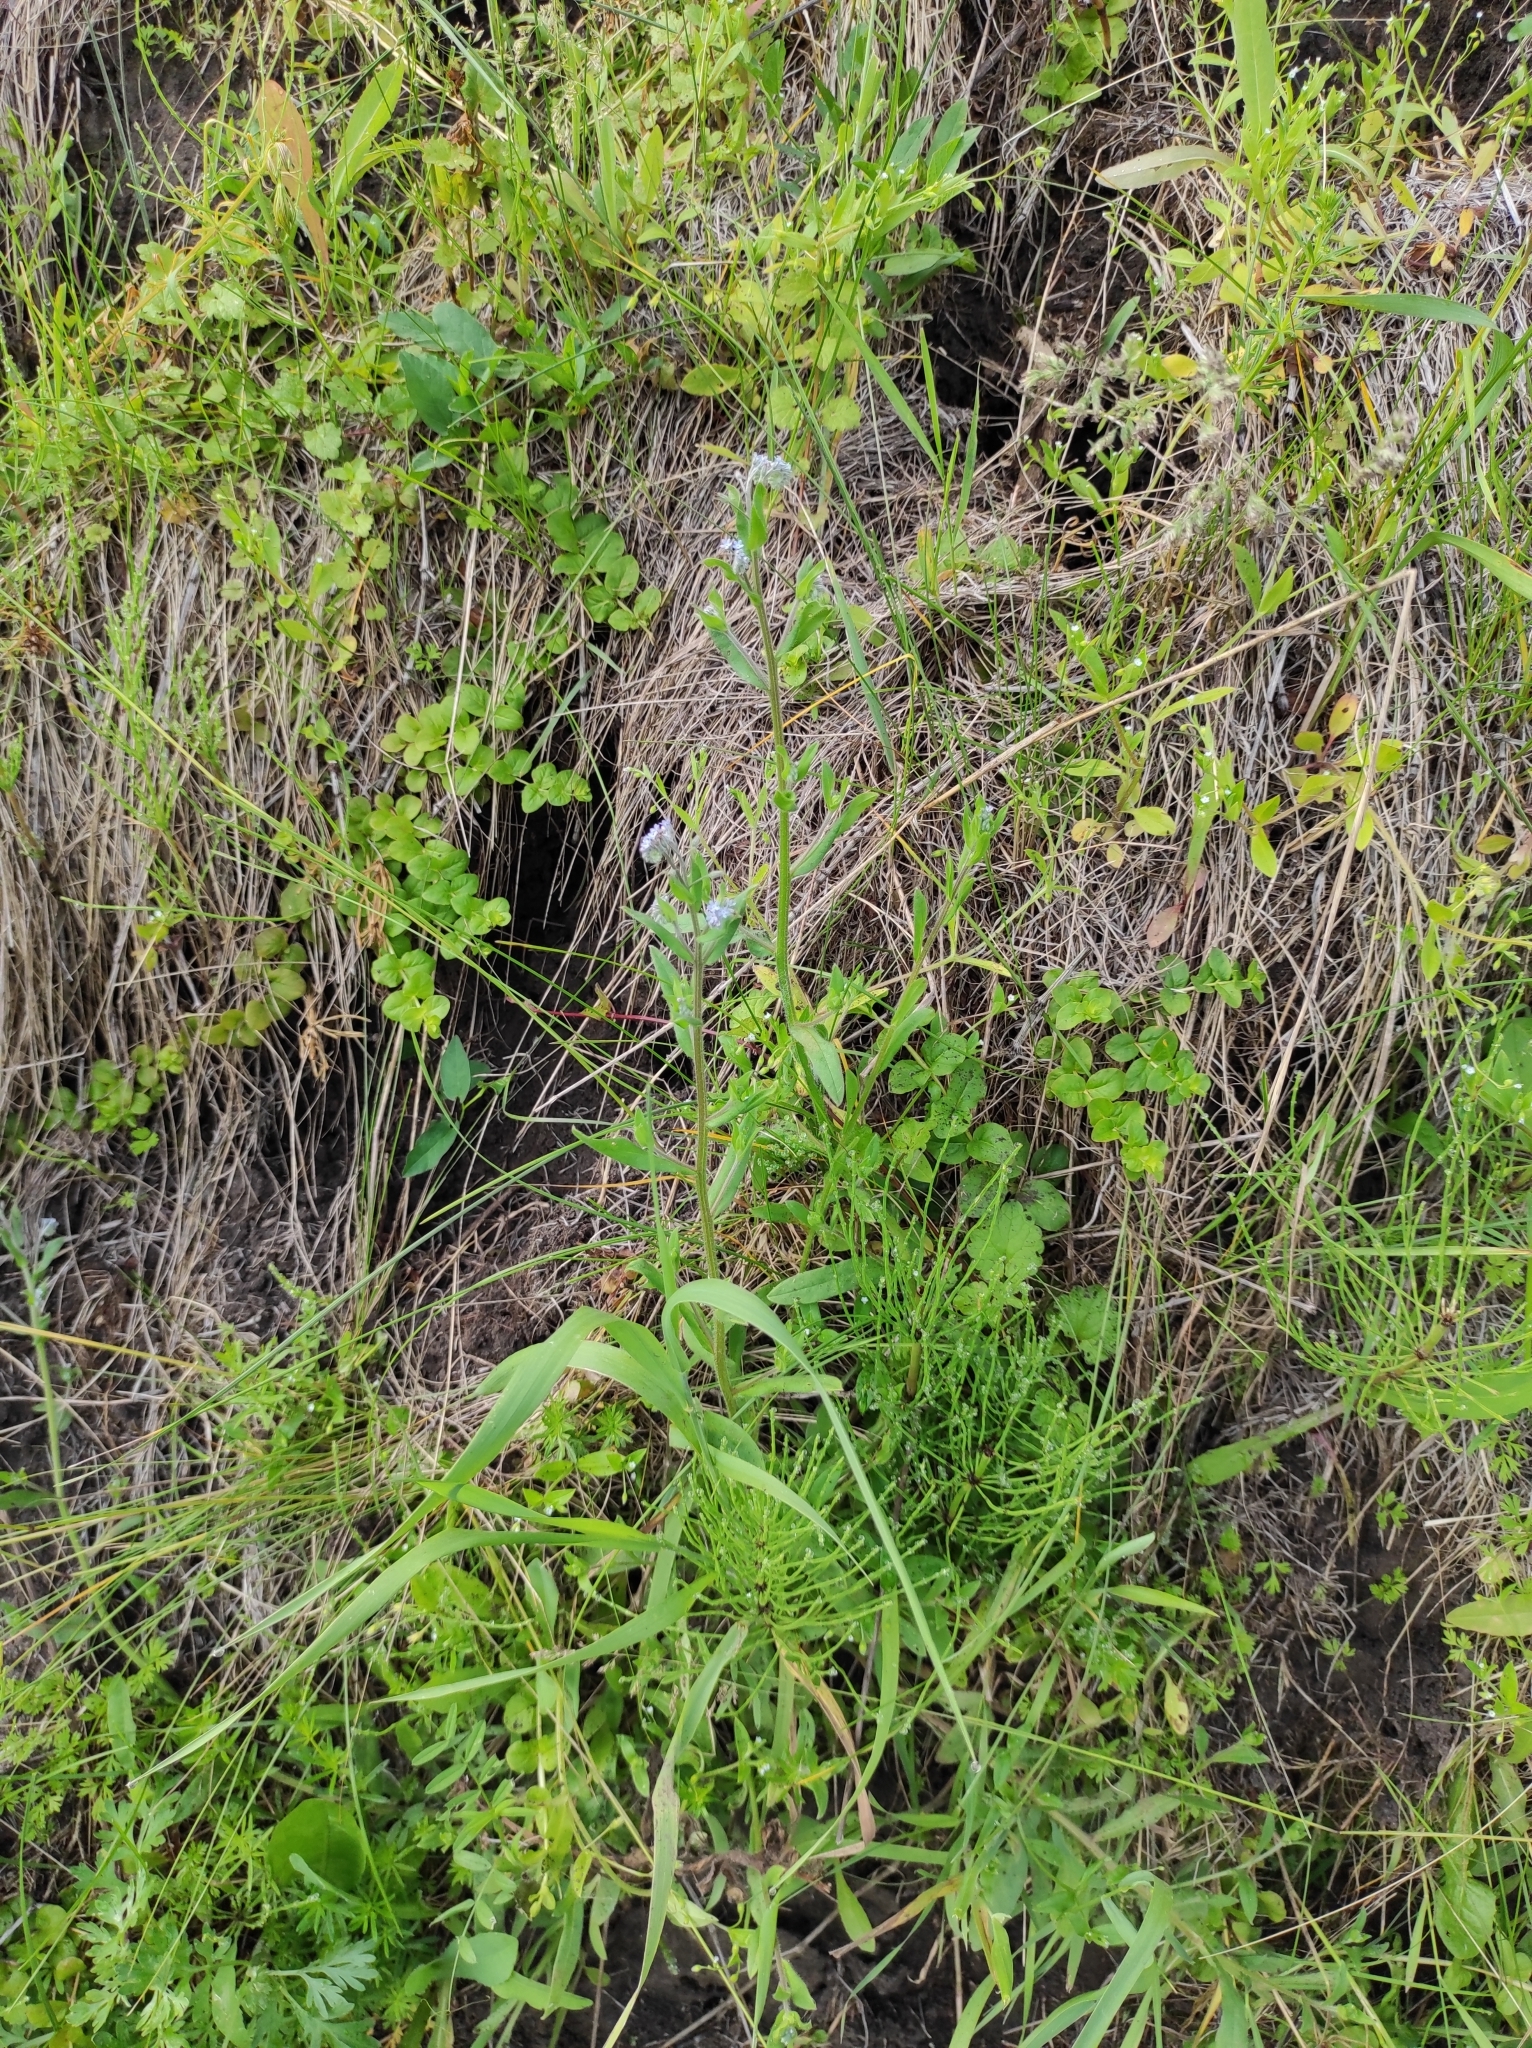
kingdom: Plantae
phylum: Tracheophyta
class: Magnoliopsida
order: Boraginales
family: Boraginaceae
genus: Myosotis
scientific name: Myosotis arvensis
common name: Field forget-me-not
